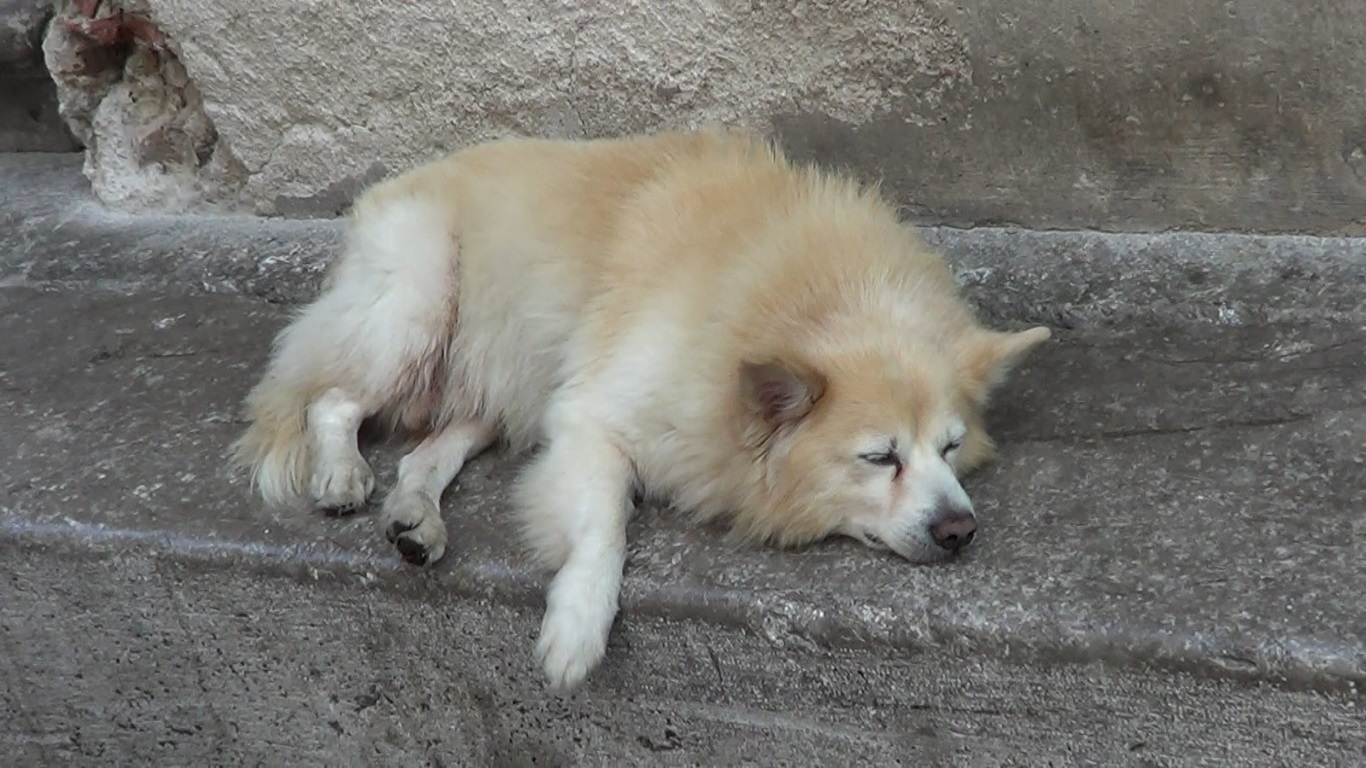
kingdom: Animalia
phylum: Chordata
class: Mammalia
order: Carnivora
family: Canidae
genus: Canis
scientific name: Canis lupus
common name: Gray wolf
